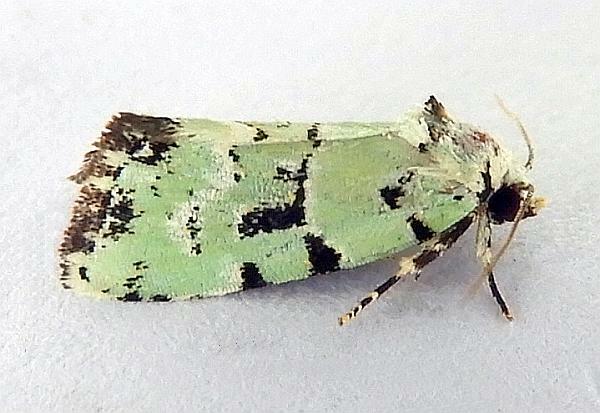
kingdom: Animalia
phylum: Arthropoda
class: Insecta
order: Lepidoptera
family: Noctuidae
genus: Elaphria
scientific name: Elaphria cyanympha
